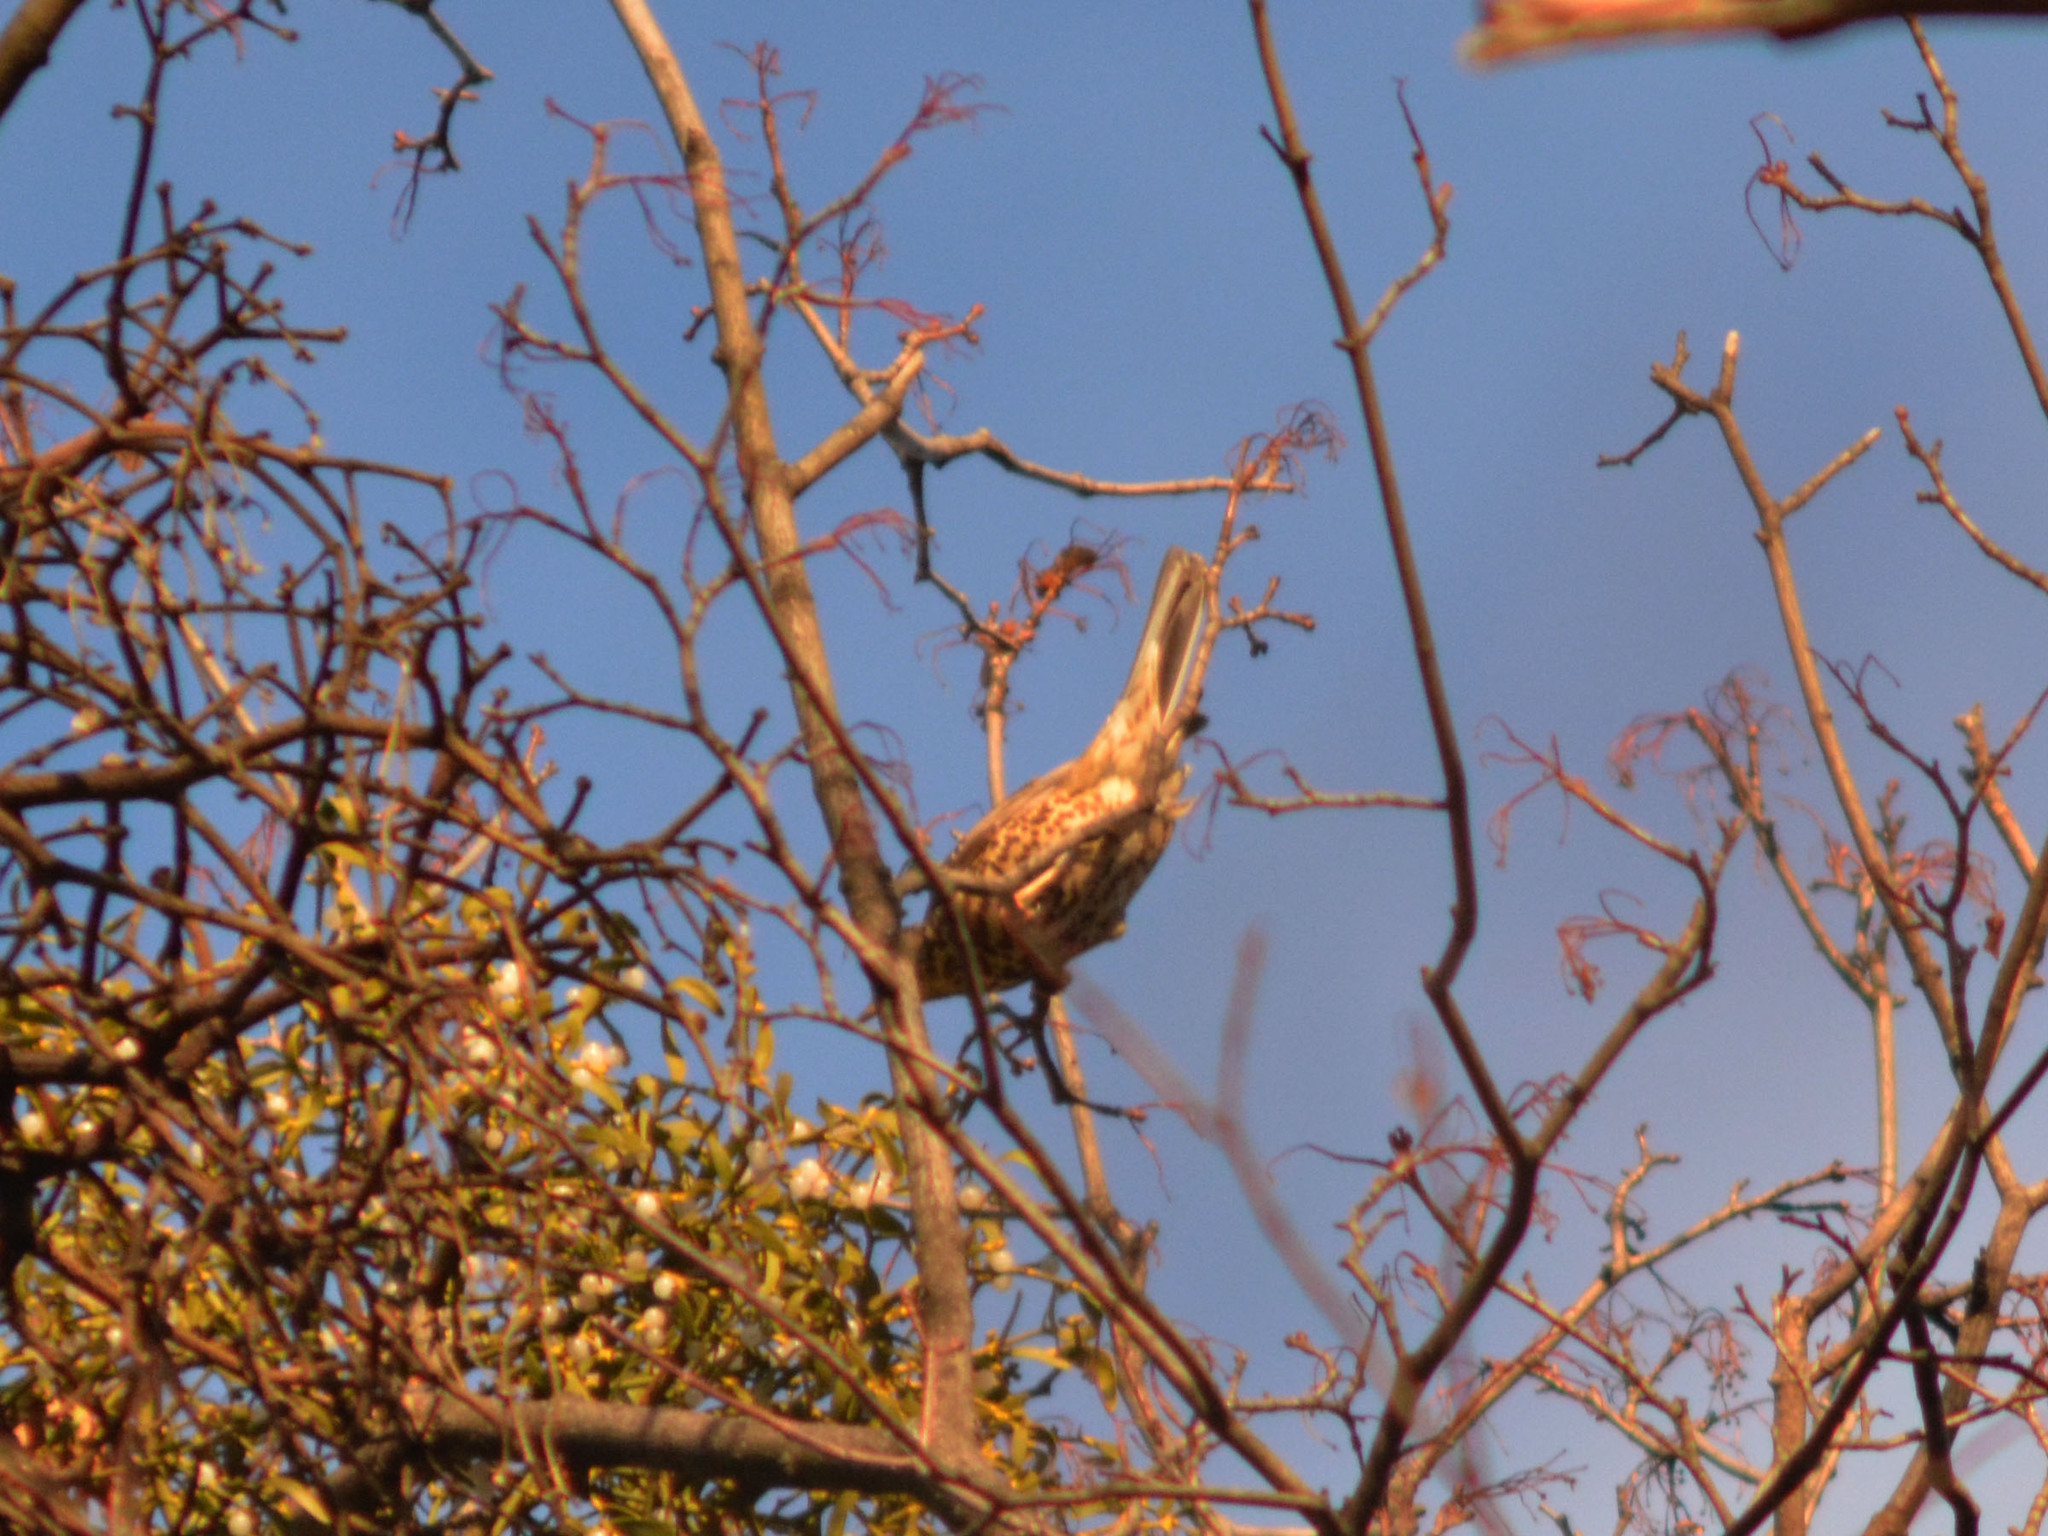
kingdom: Animalia
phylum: Chordata
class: Aves
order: Passeriformes
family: Turdidae
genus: Turdus
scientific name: Turdus viscivorus
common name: Mistle thrush
